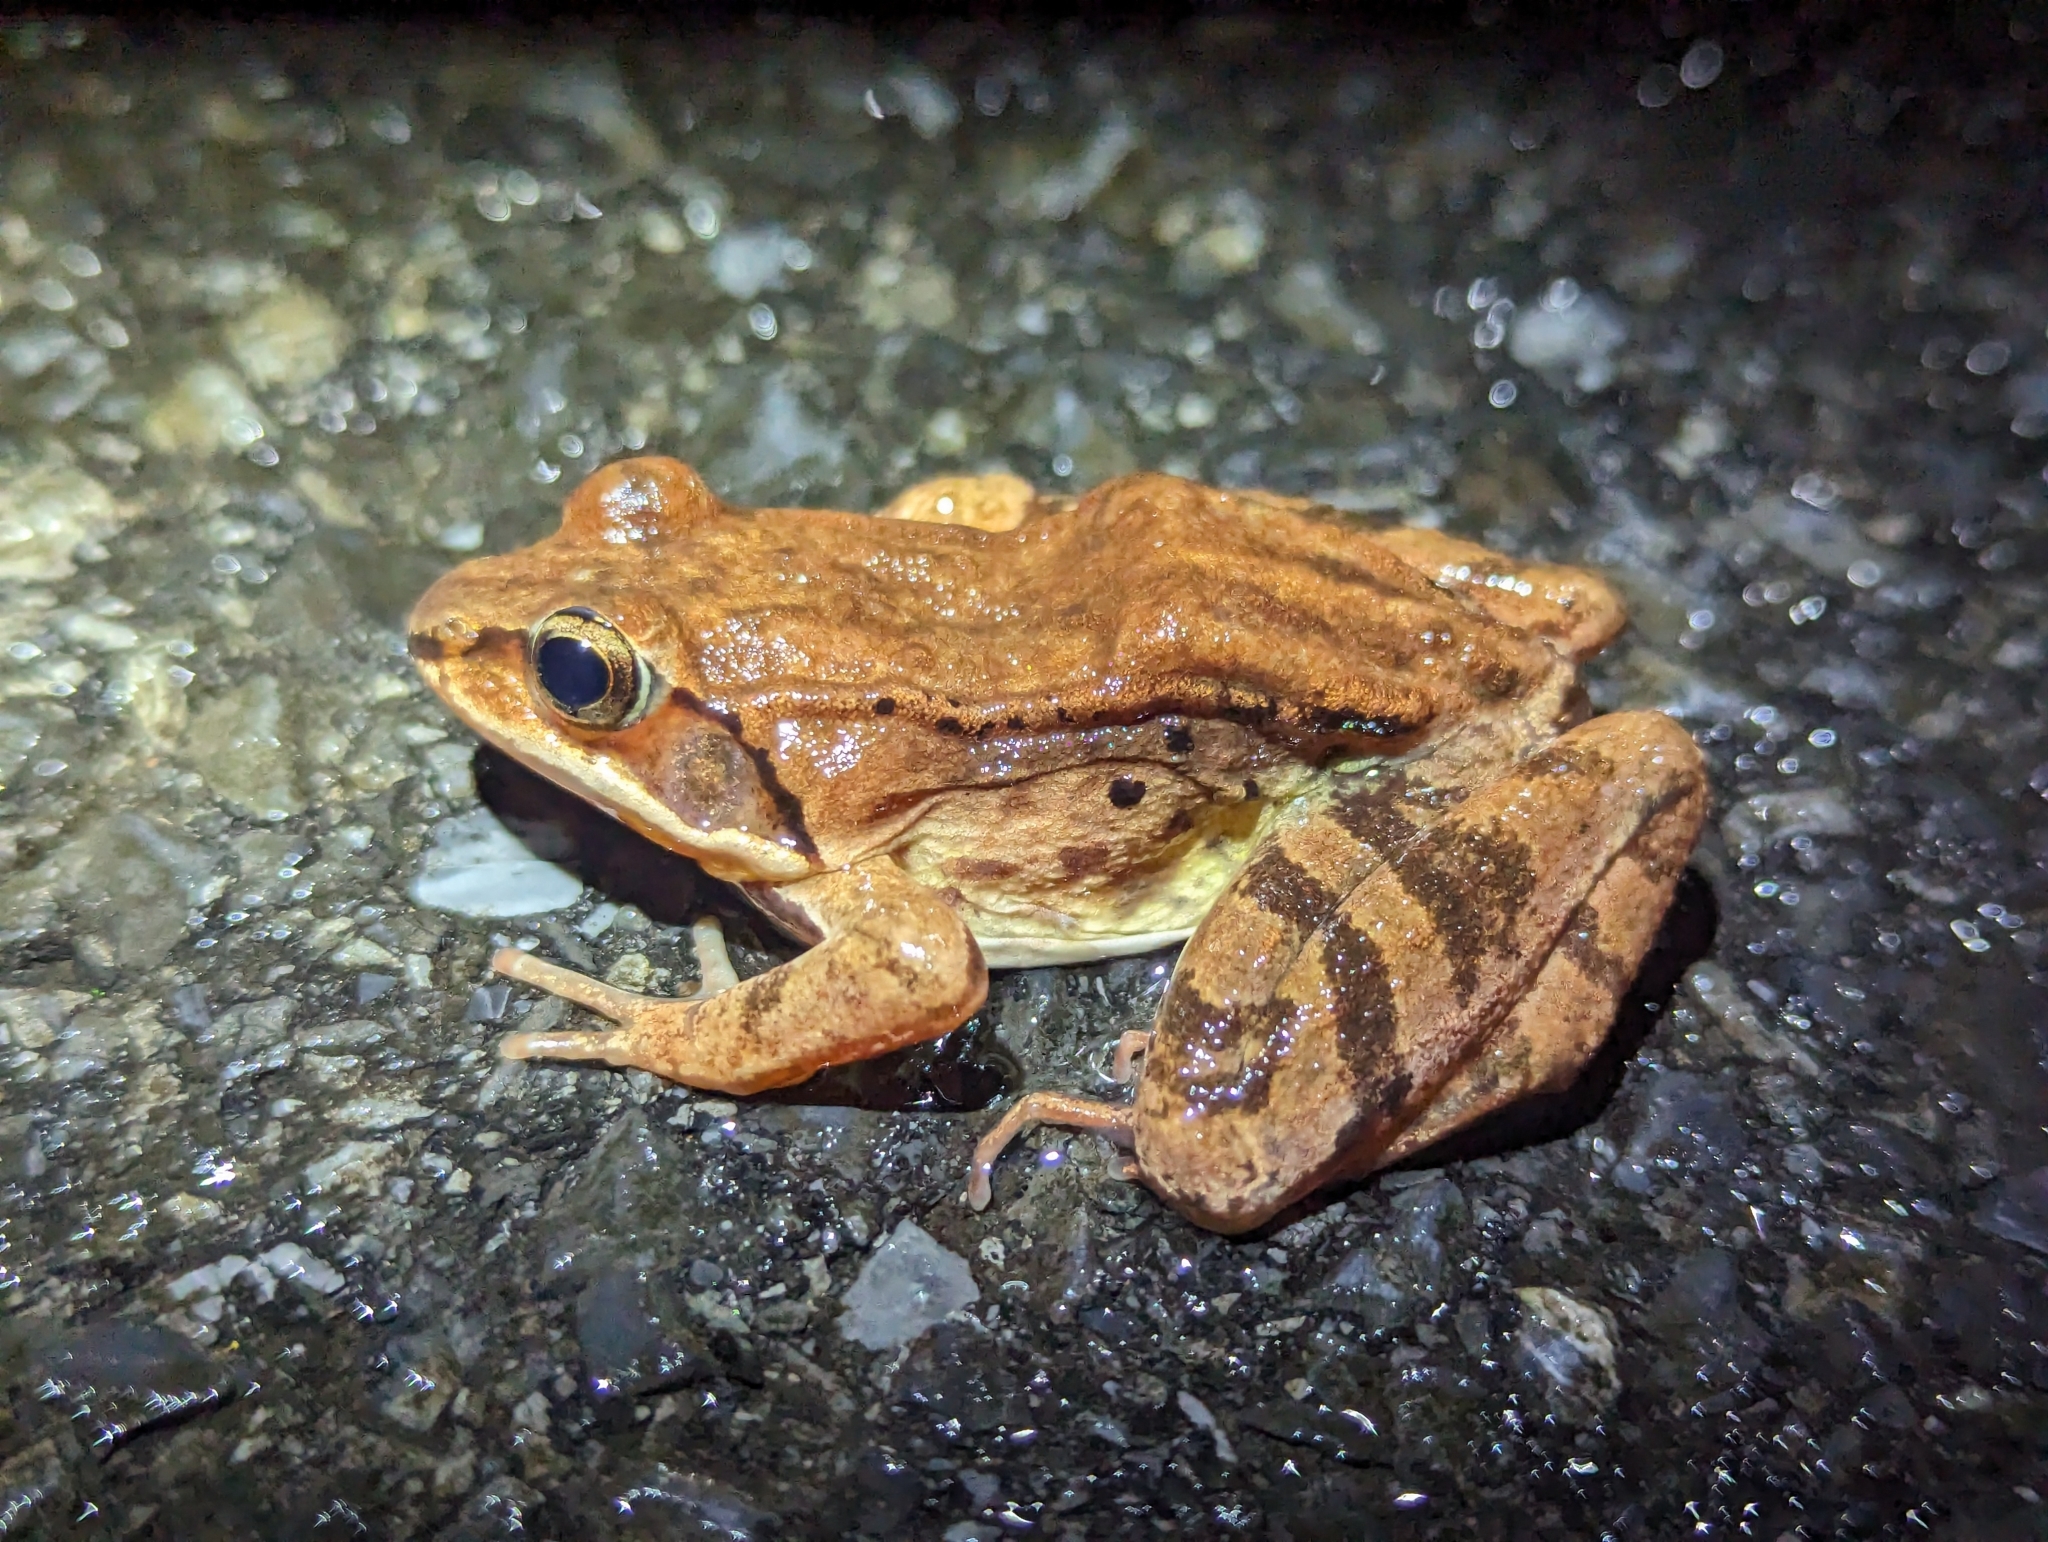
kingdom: Animalia
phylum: Chordata
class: Amphibia
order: Anura
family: Ranidae
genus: Lithobates
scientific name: Lithobates sylvaticus
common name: Wood frog
